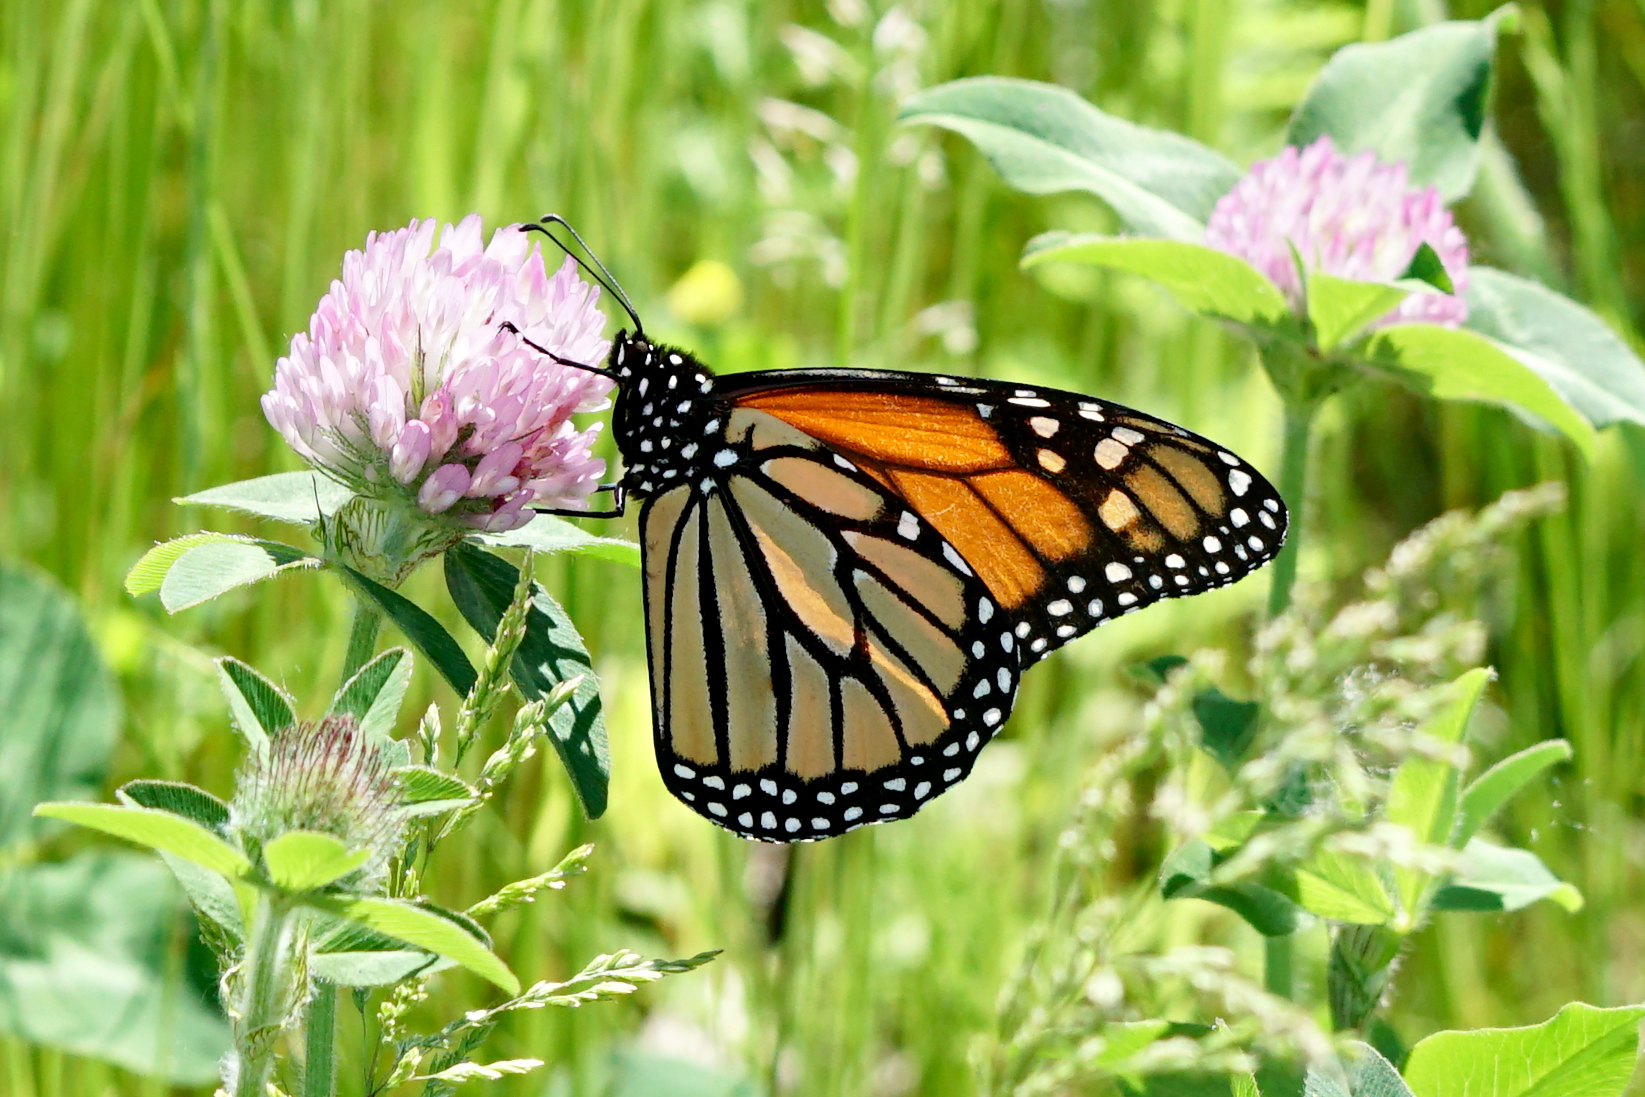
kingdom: Animalia
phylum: Arthropoda
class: Insecta
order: Lepidoptera
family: Nymphalidae
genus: Danaus
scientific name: Danaus plexippus
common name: Monarch
